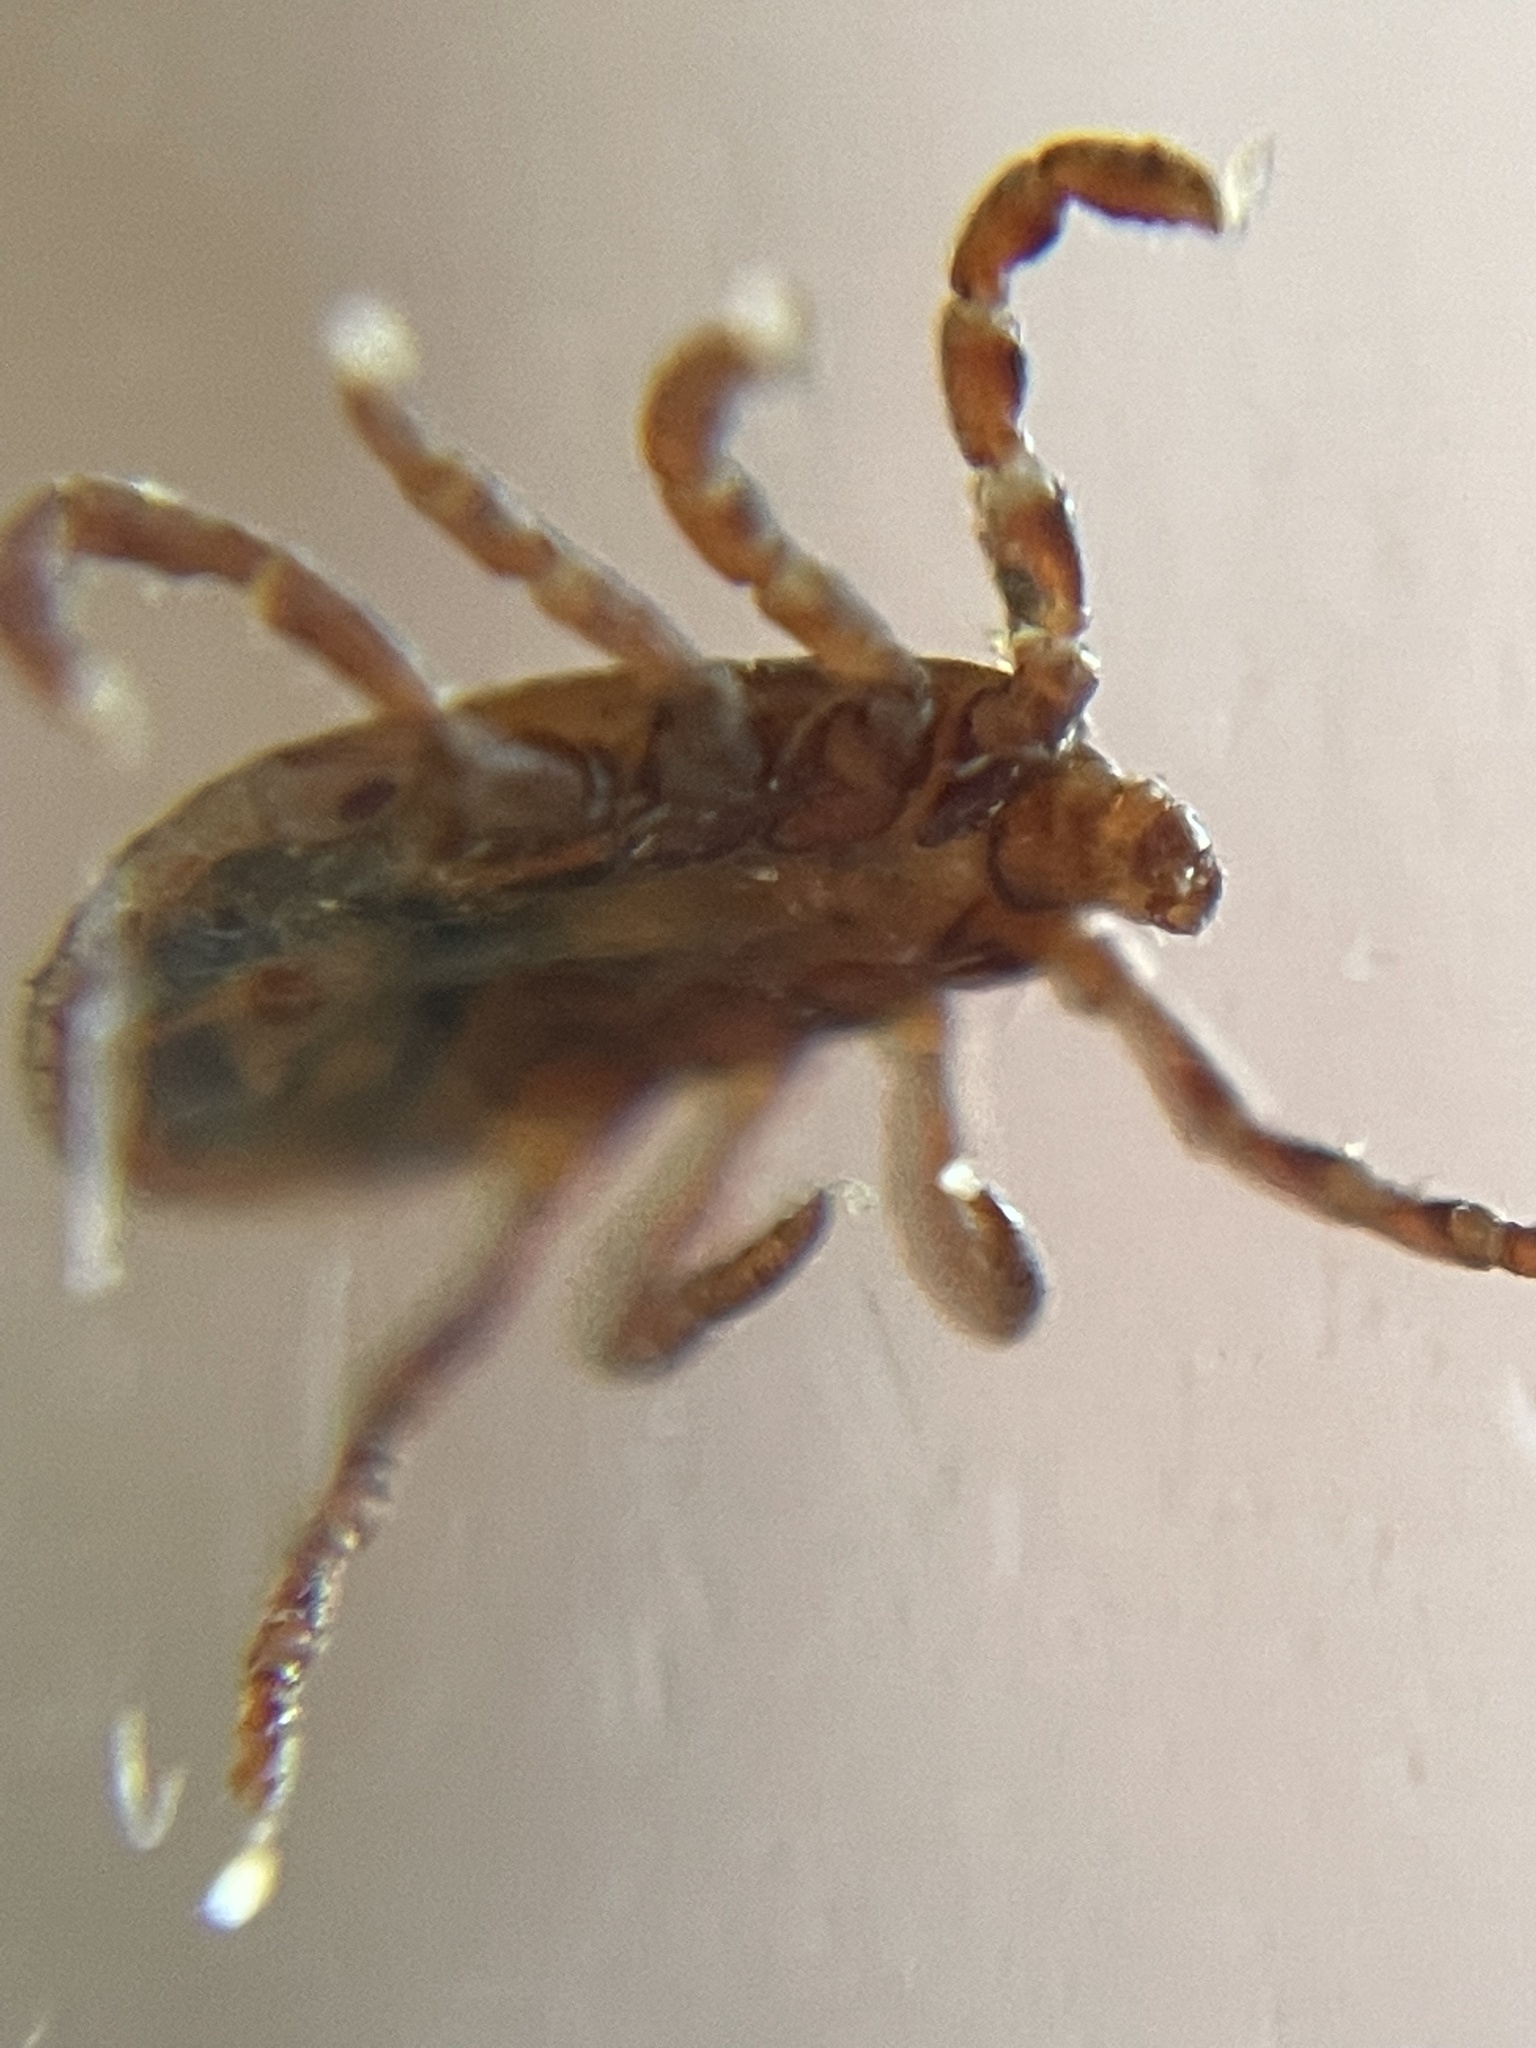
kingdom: Animalia
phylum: Arthropoda
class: Arachnida
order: Ixodida
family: Ixodidae
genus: Dermacentor
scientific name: Dermacentor occidentalis
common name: Net tick
